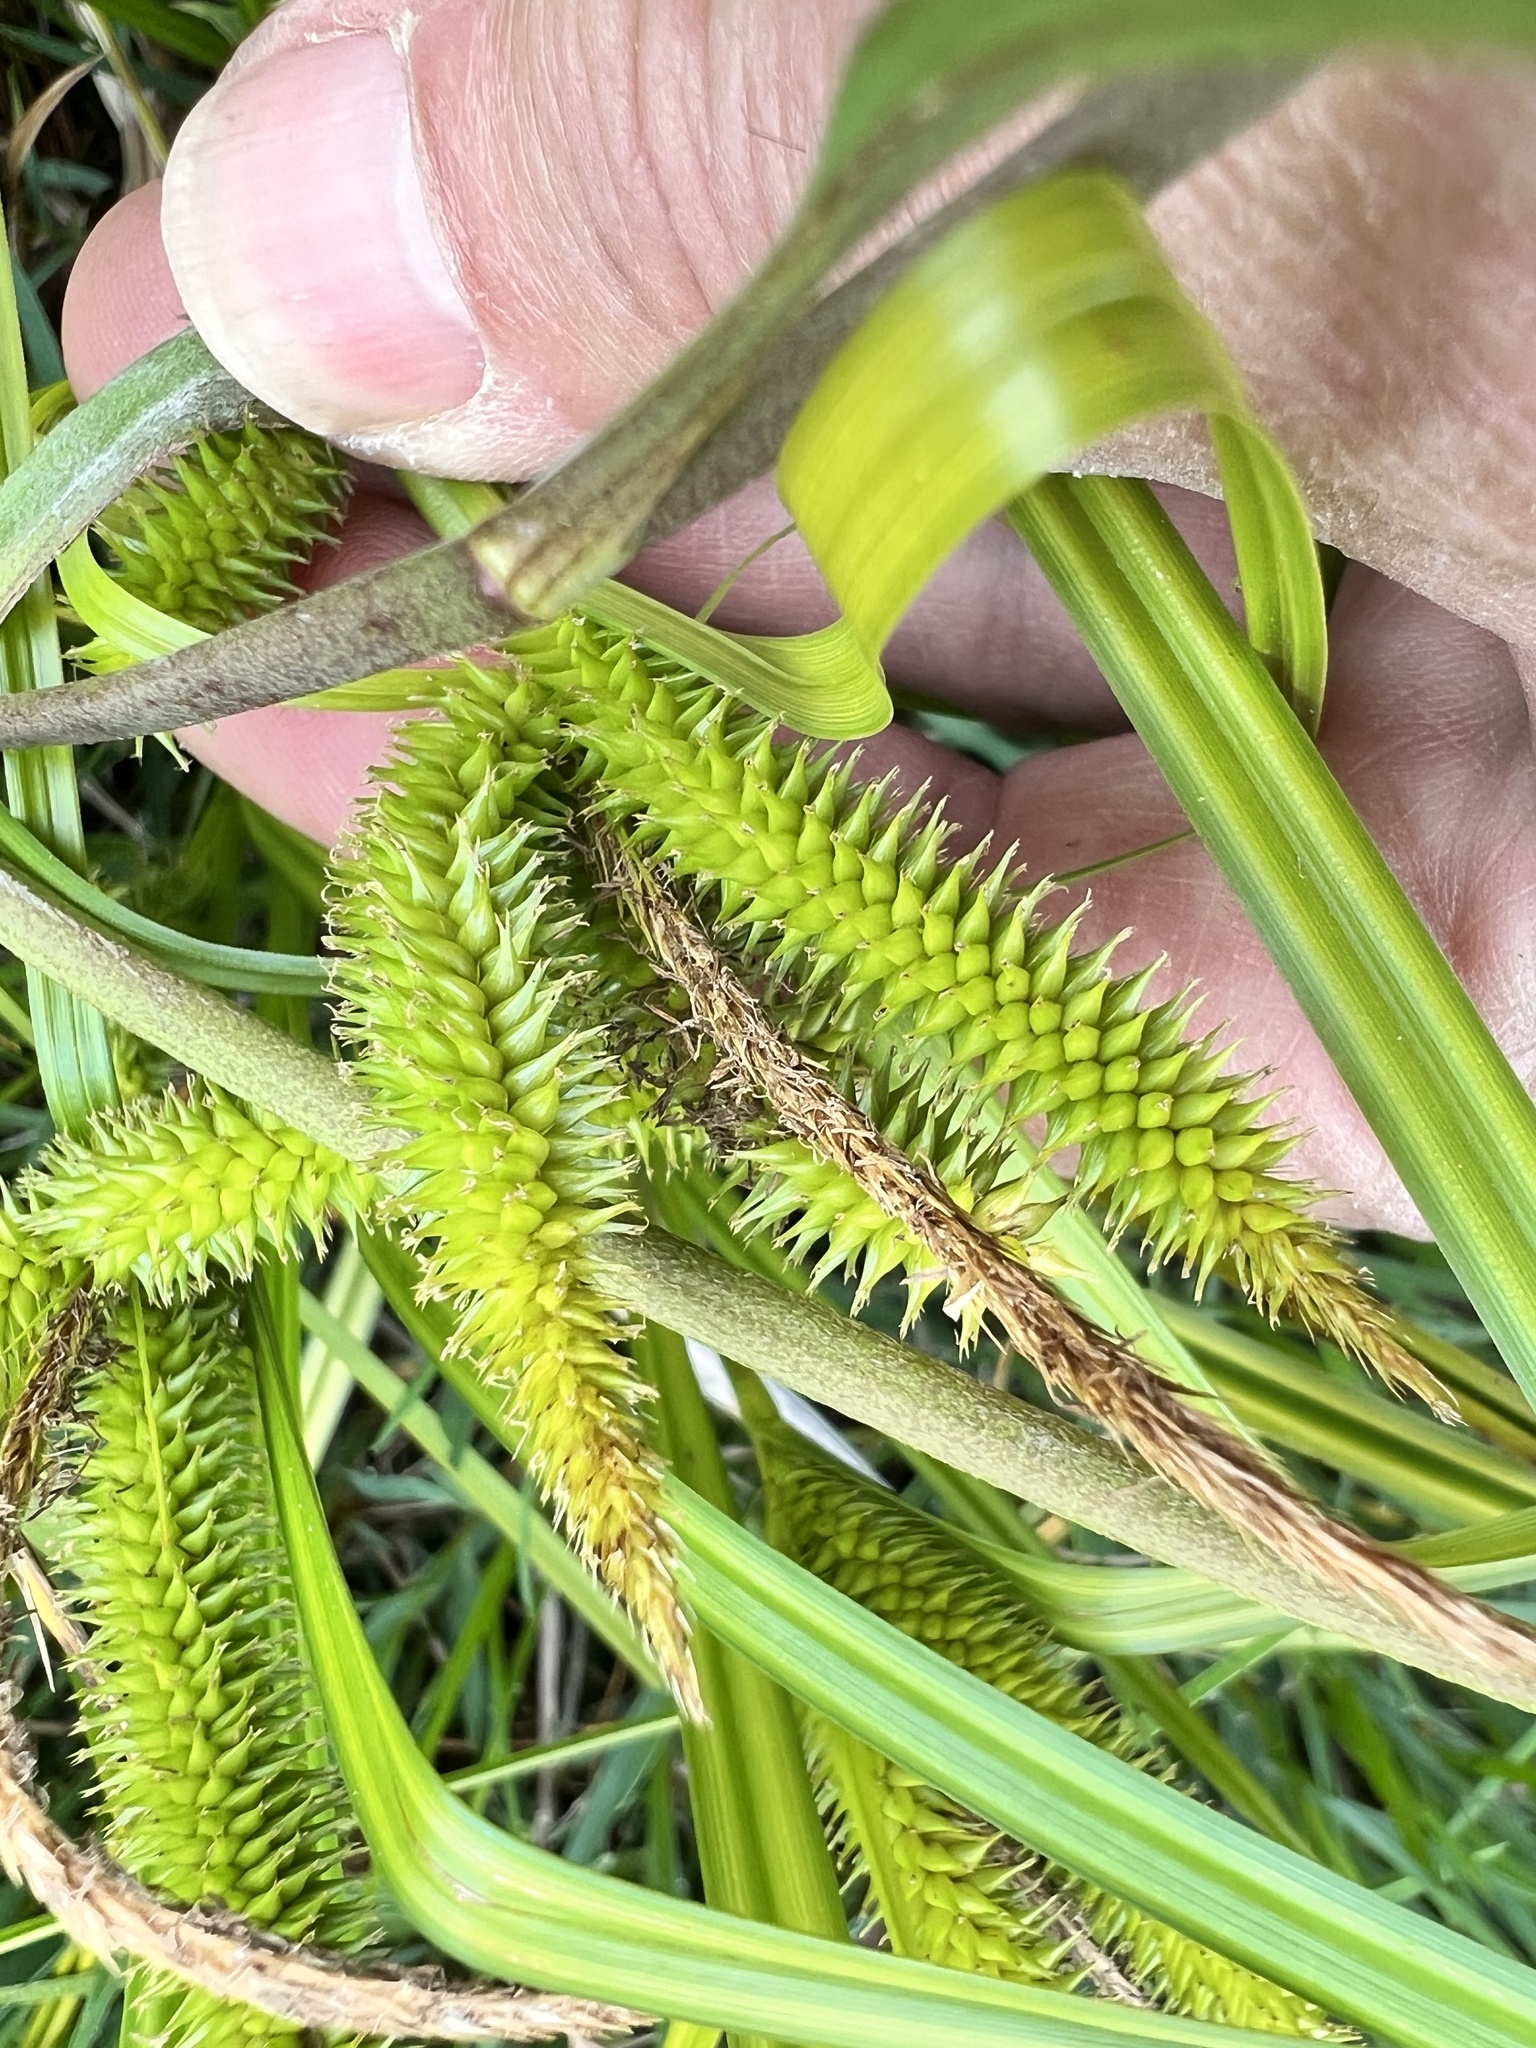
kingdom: Plantae
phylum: Tracheophyta
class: Liliopsida
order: Poales
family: Cyperaceae
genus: Carex
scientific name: Carex maorica
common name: Maori sedge
